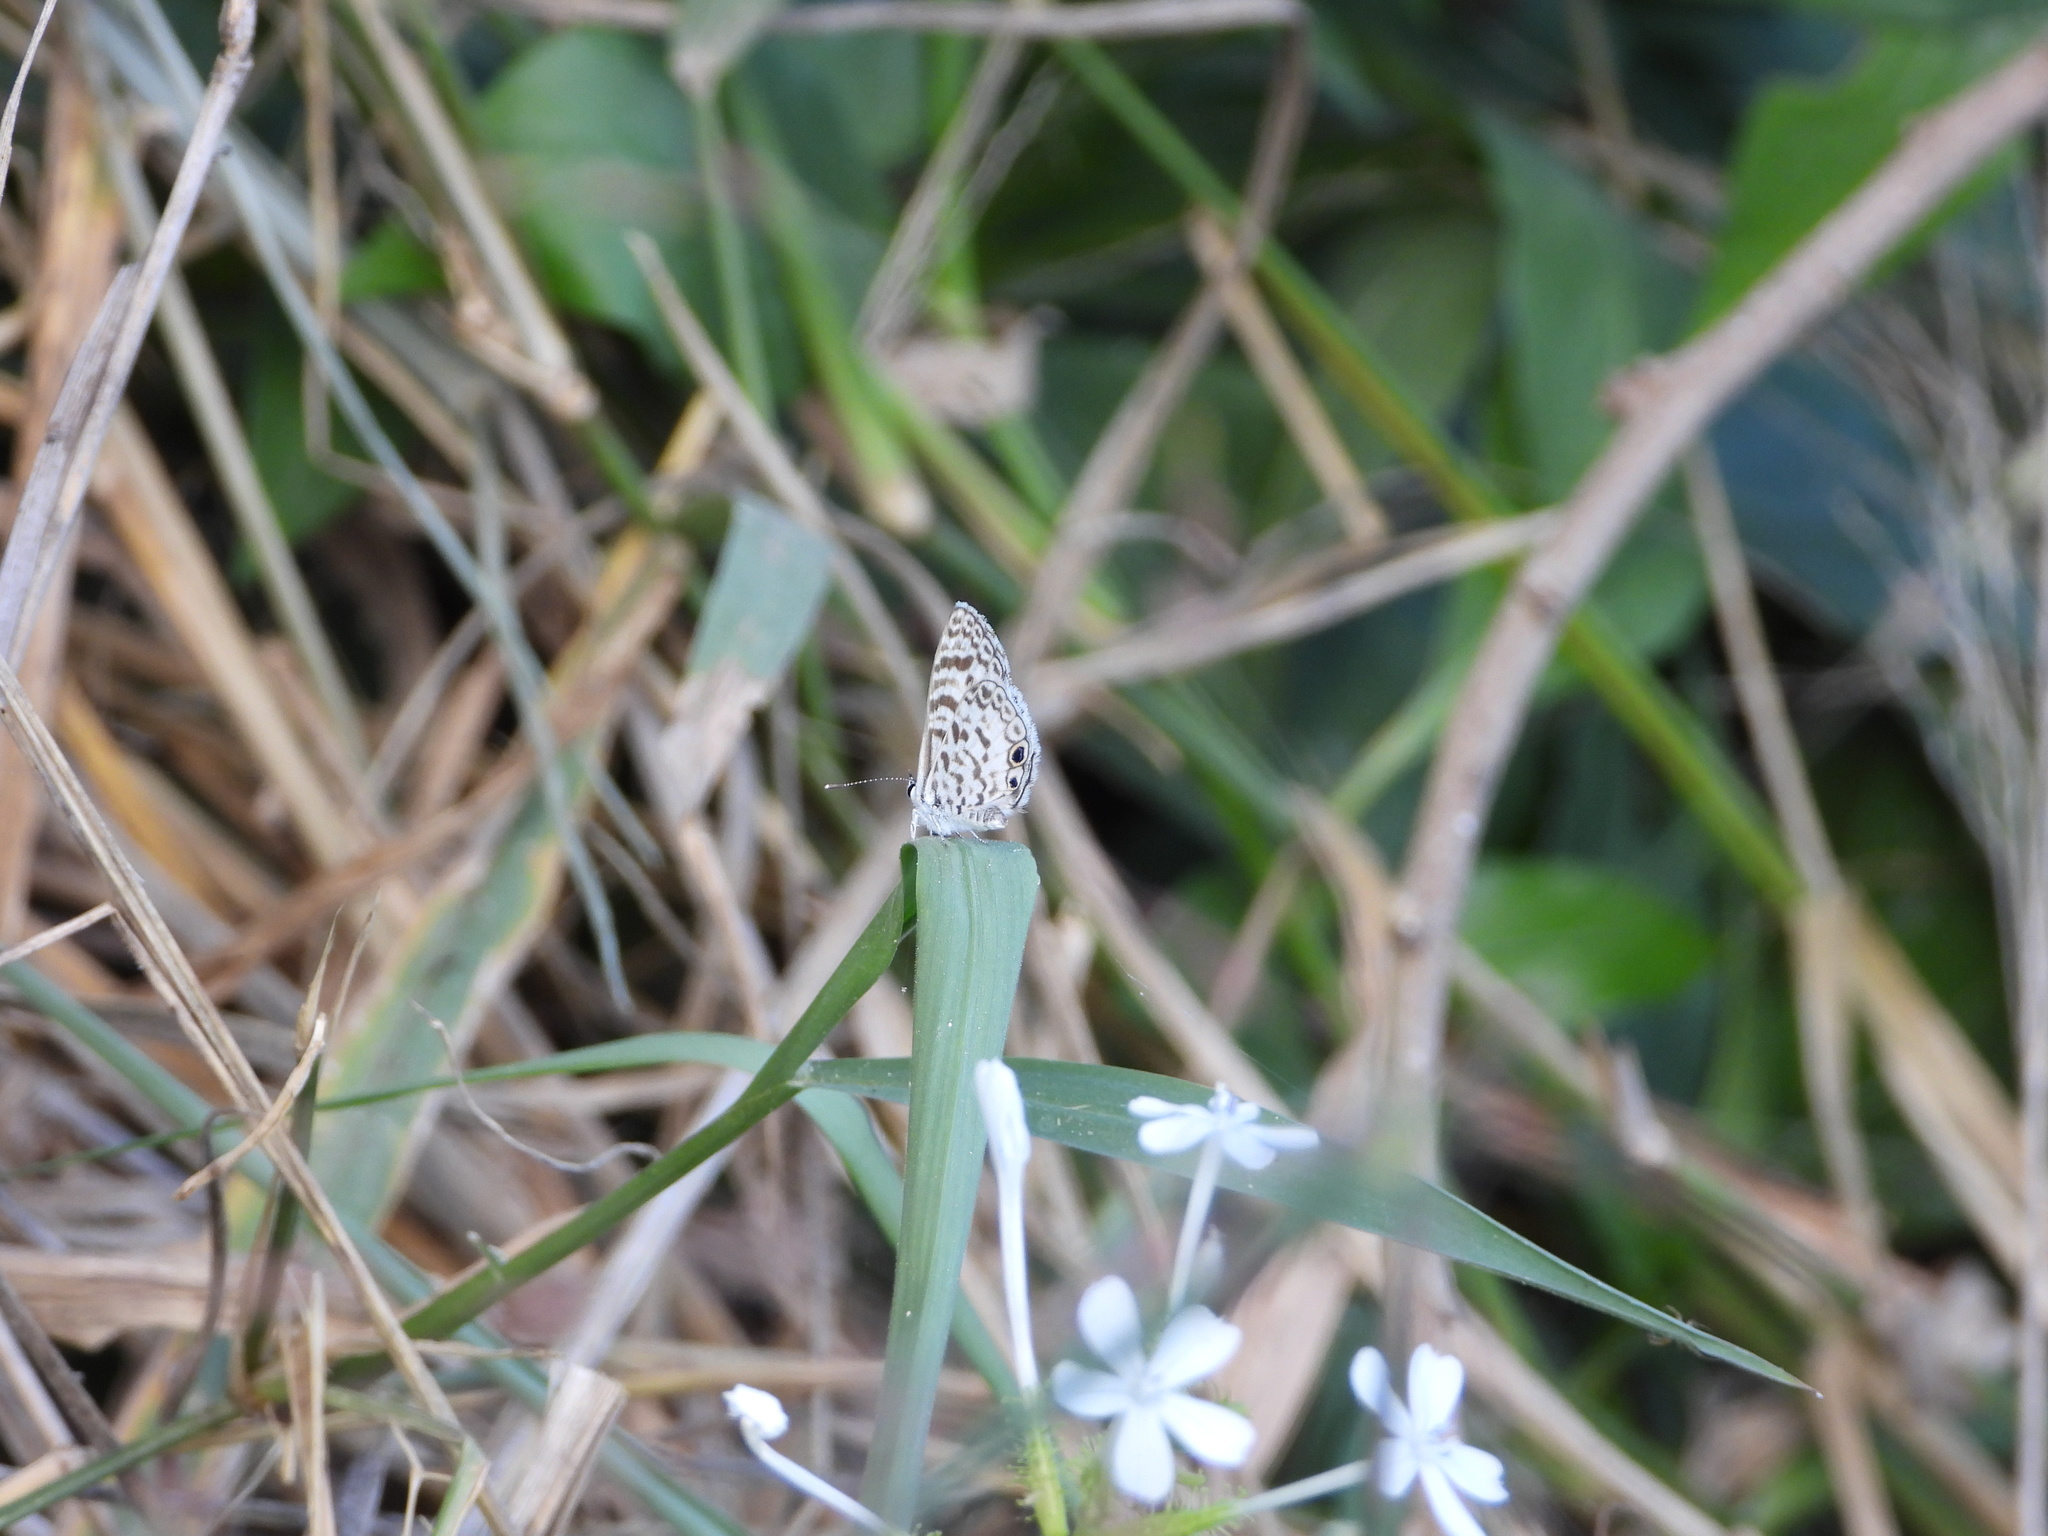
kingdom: Animalia
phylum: Arthropoda
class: Insecta
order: Lepidoptera
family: Lycaenidae
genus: Leptotes
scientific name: Leptotes cassius
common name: Cassius blue
